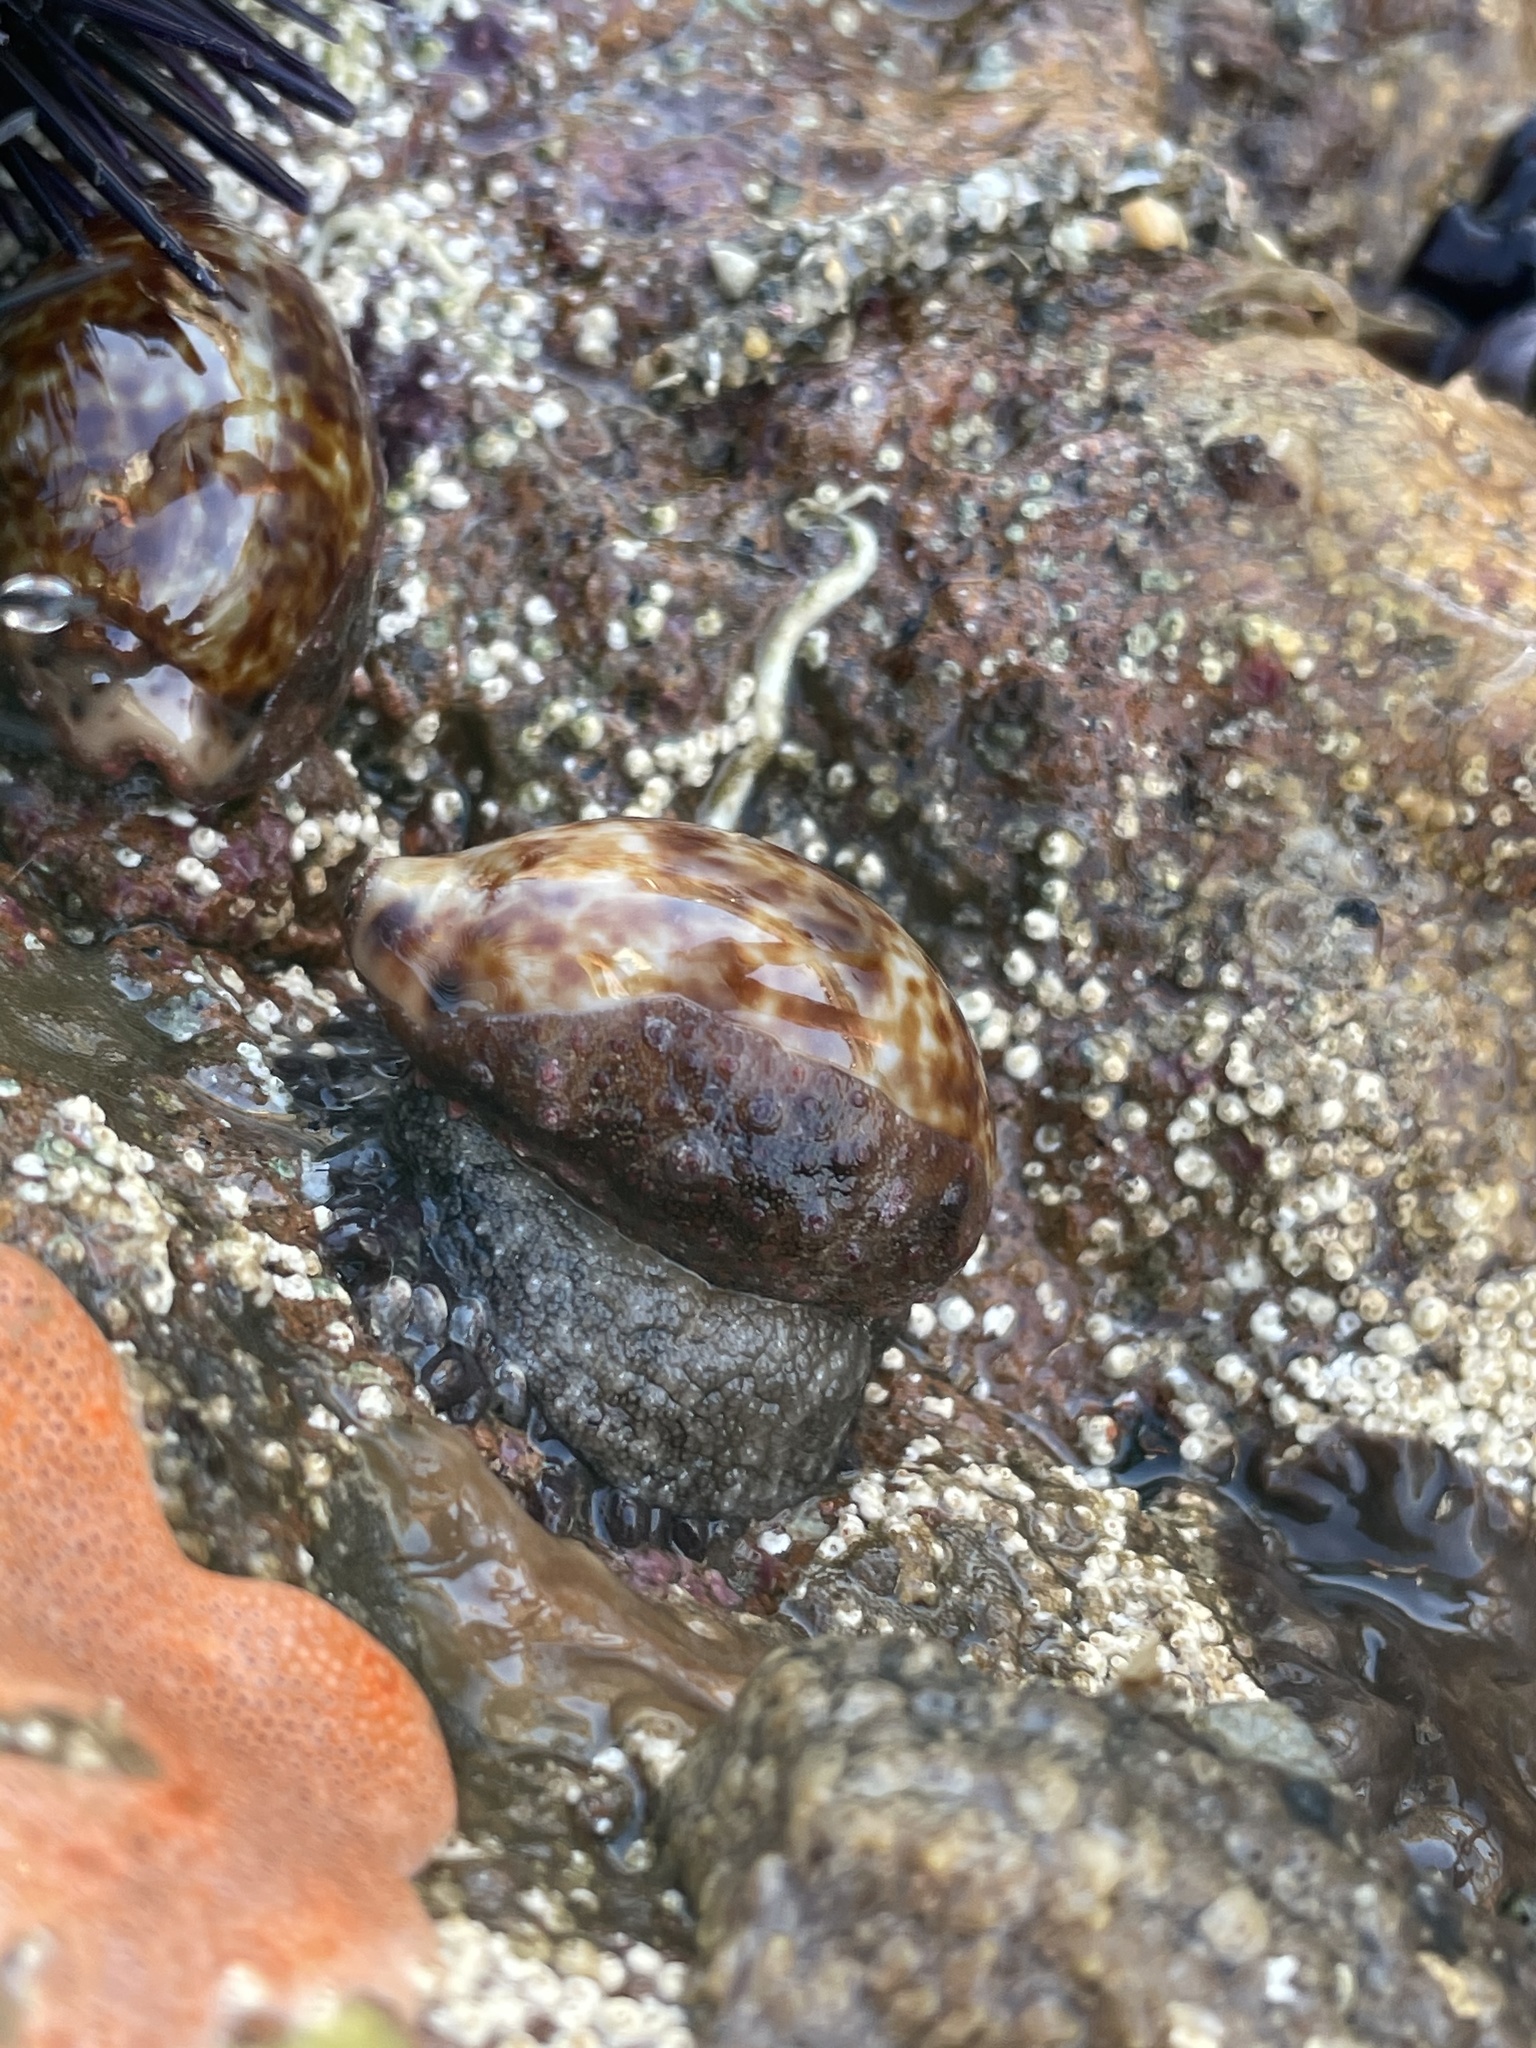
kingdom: Animalia
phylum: Mollusca
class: Gastropoda
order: Littorinimorpha
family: Cypraeidae
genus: Pseudozonaria
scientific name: Pseudozonaria annettae
